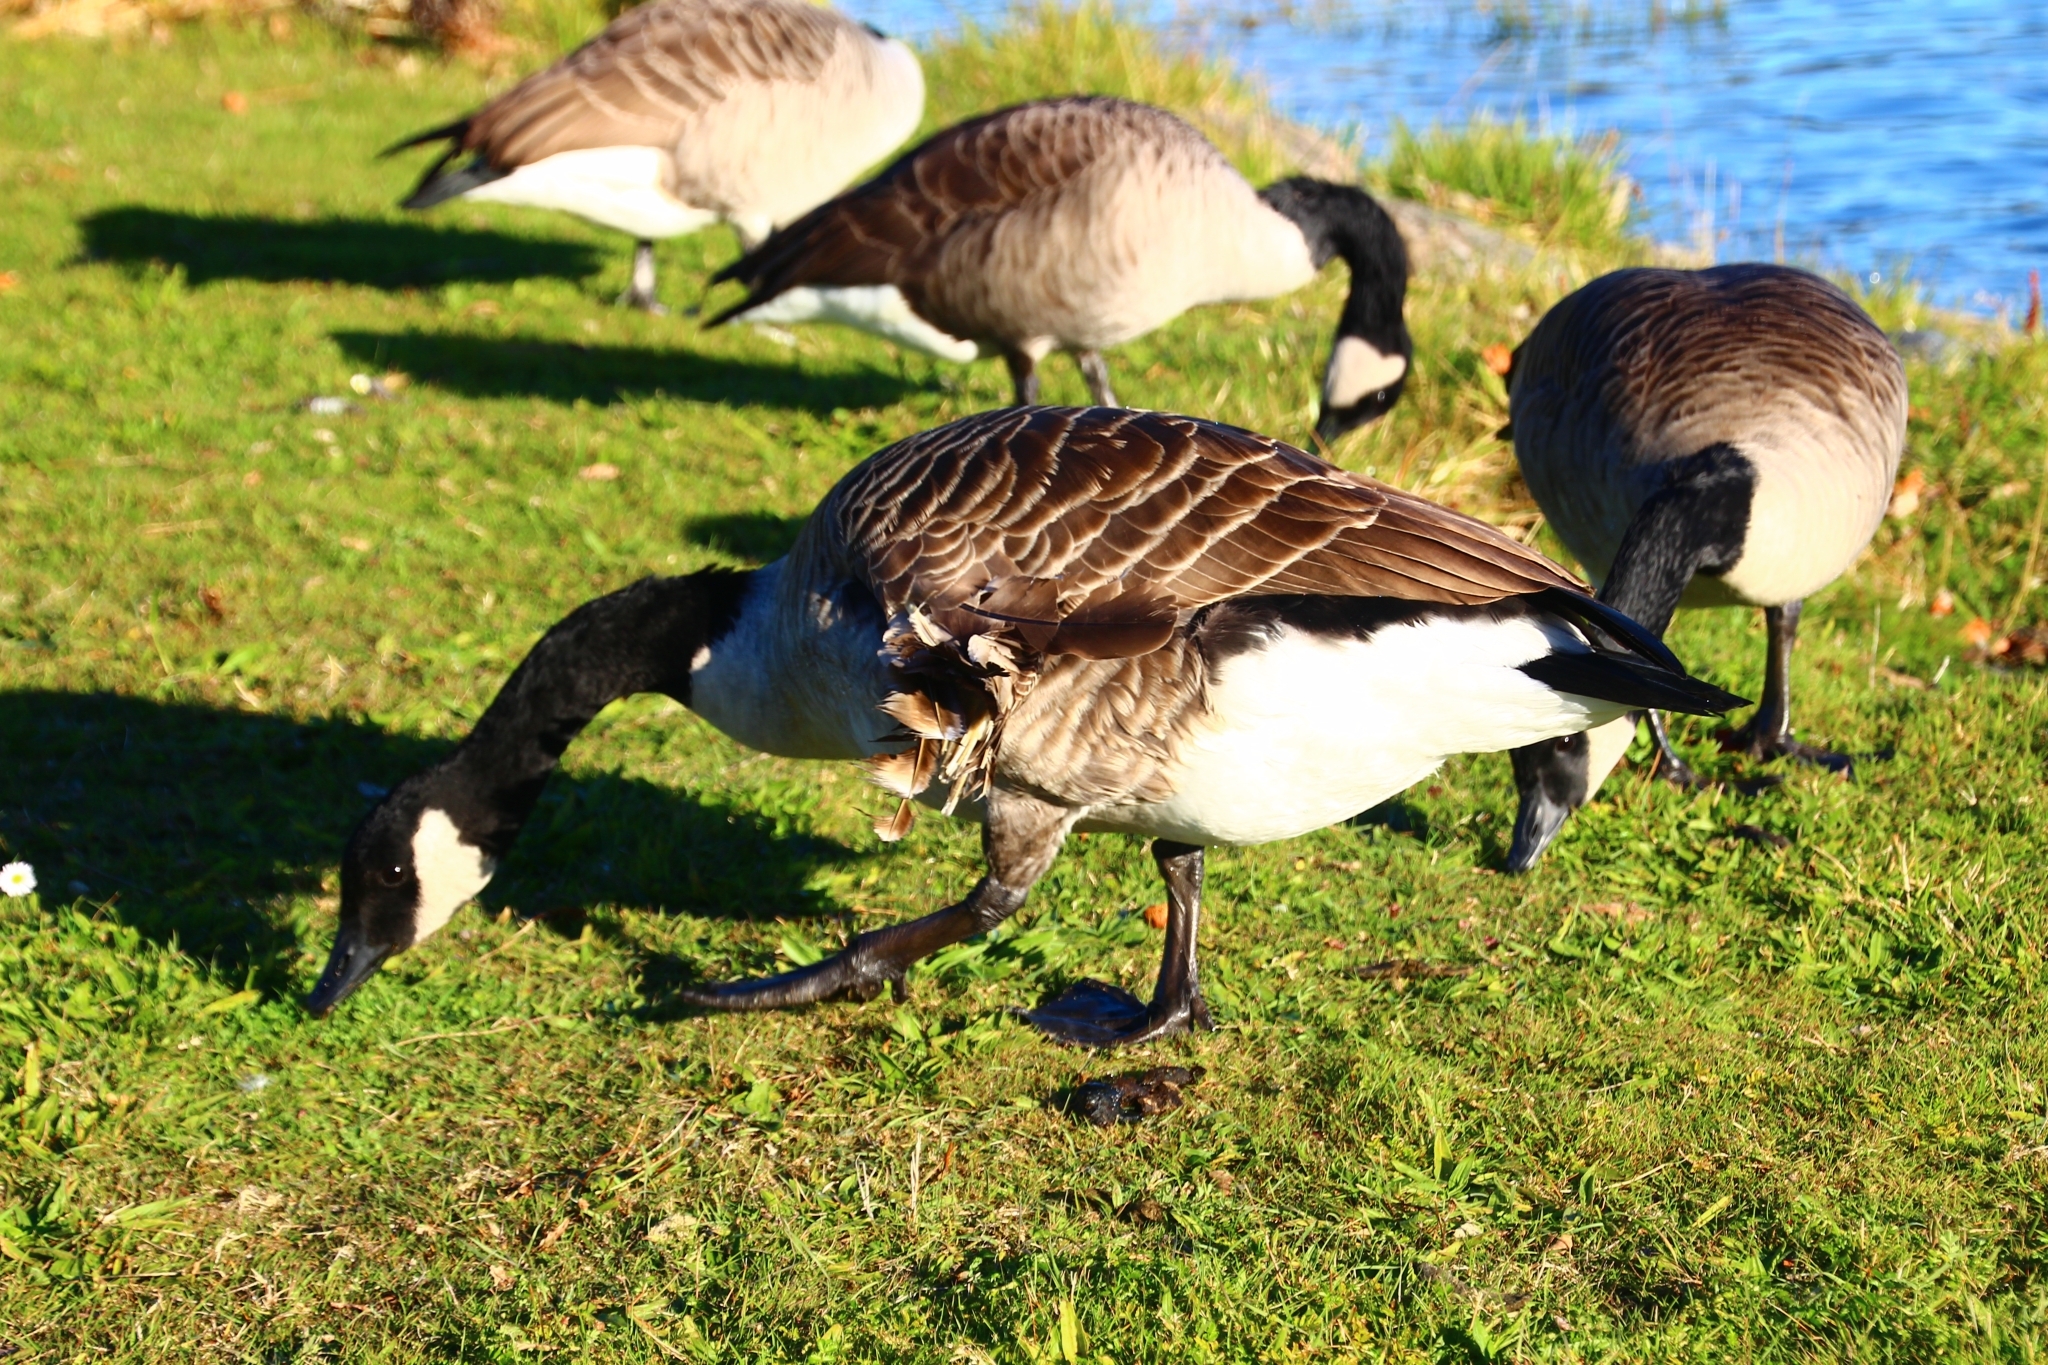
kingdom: Animalia
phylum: Chordata
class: Aves
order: Anseriformes
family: Anatidae
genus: Branta
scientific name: Branta canadensis
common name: Canada goose
